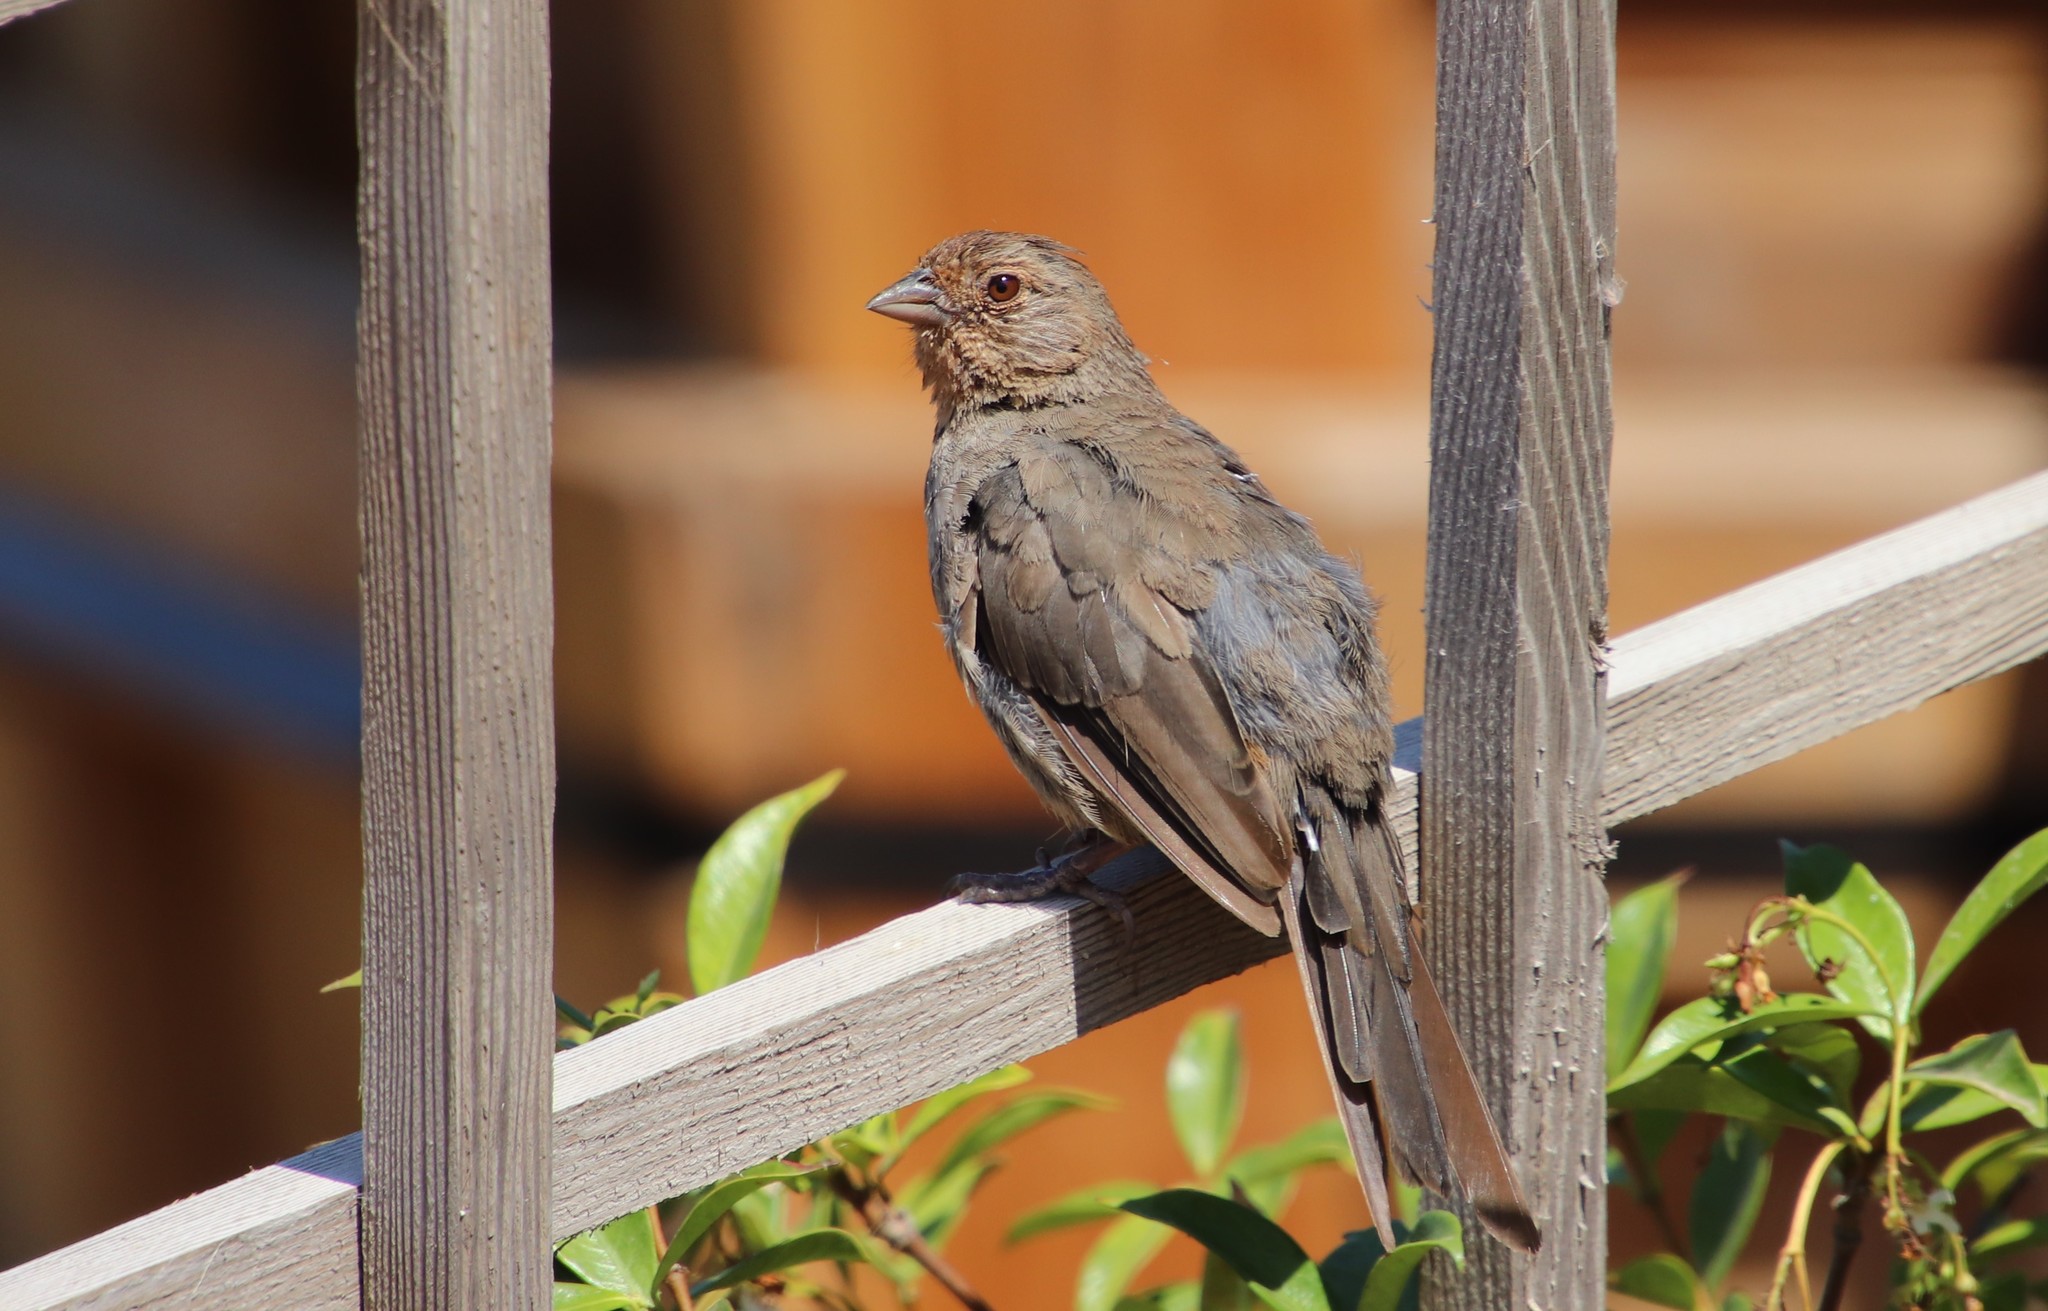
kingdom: Animalia
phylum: Chordata
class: Aves
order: Passeriformes
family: Passerellidae
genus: Melozone
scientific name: Melozone crissalis
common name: California towhee
